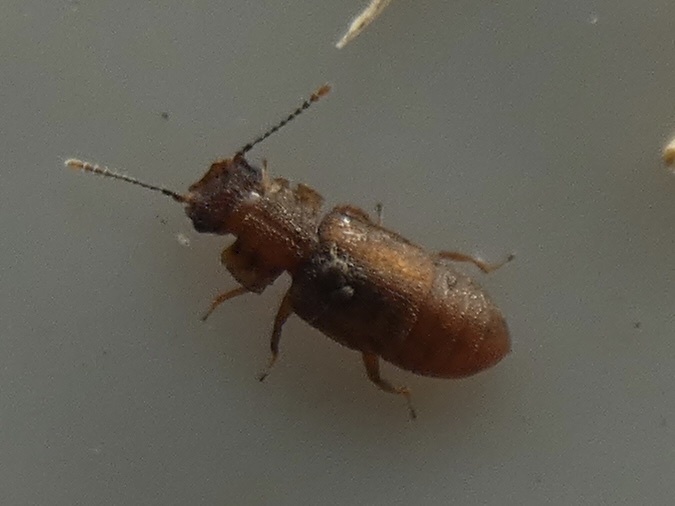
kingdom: Animalia
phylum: Arthropoda
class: Insecta
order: Coleoptera
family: Staphylinidae
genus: Metopsia
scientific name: Metopsia clypeata
